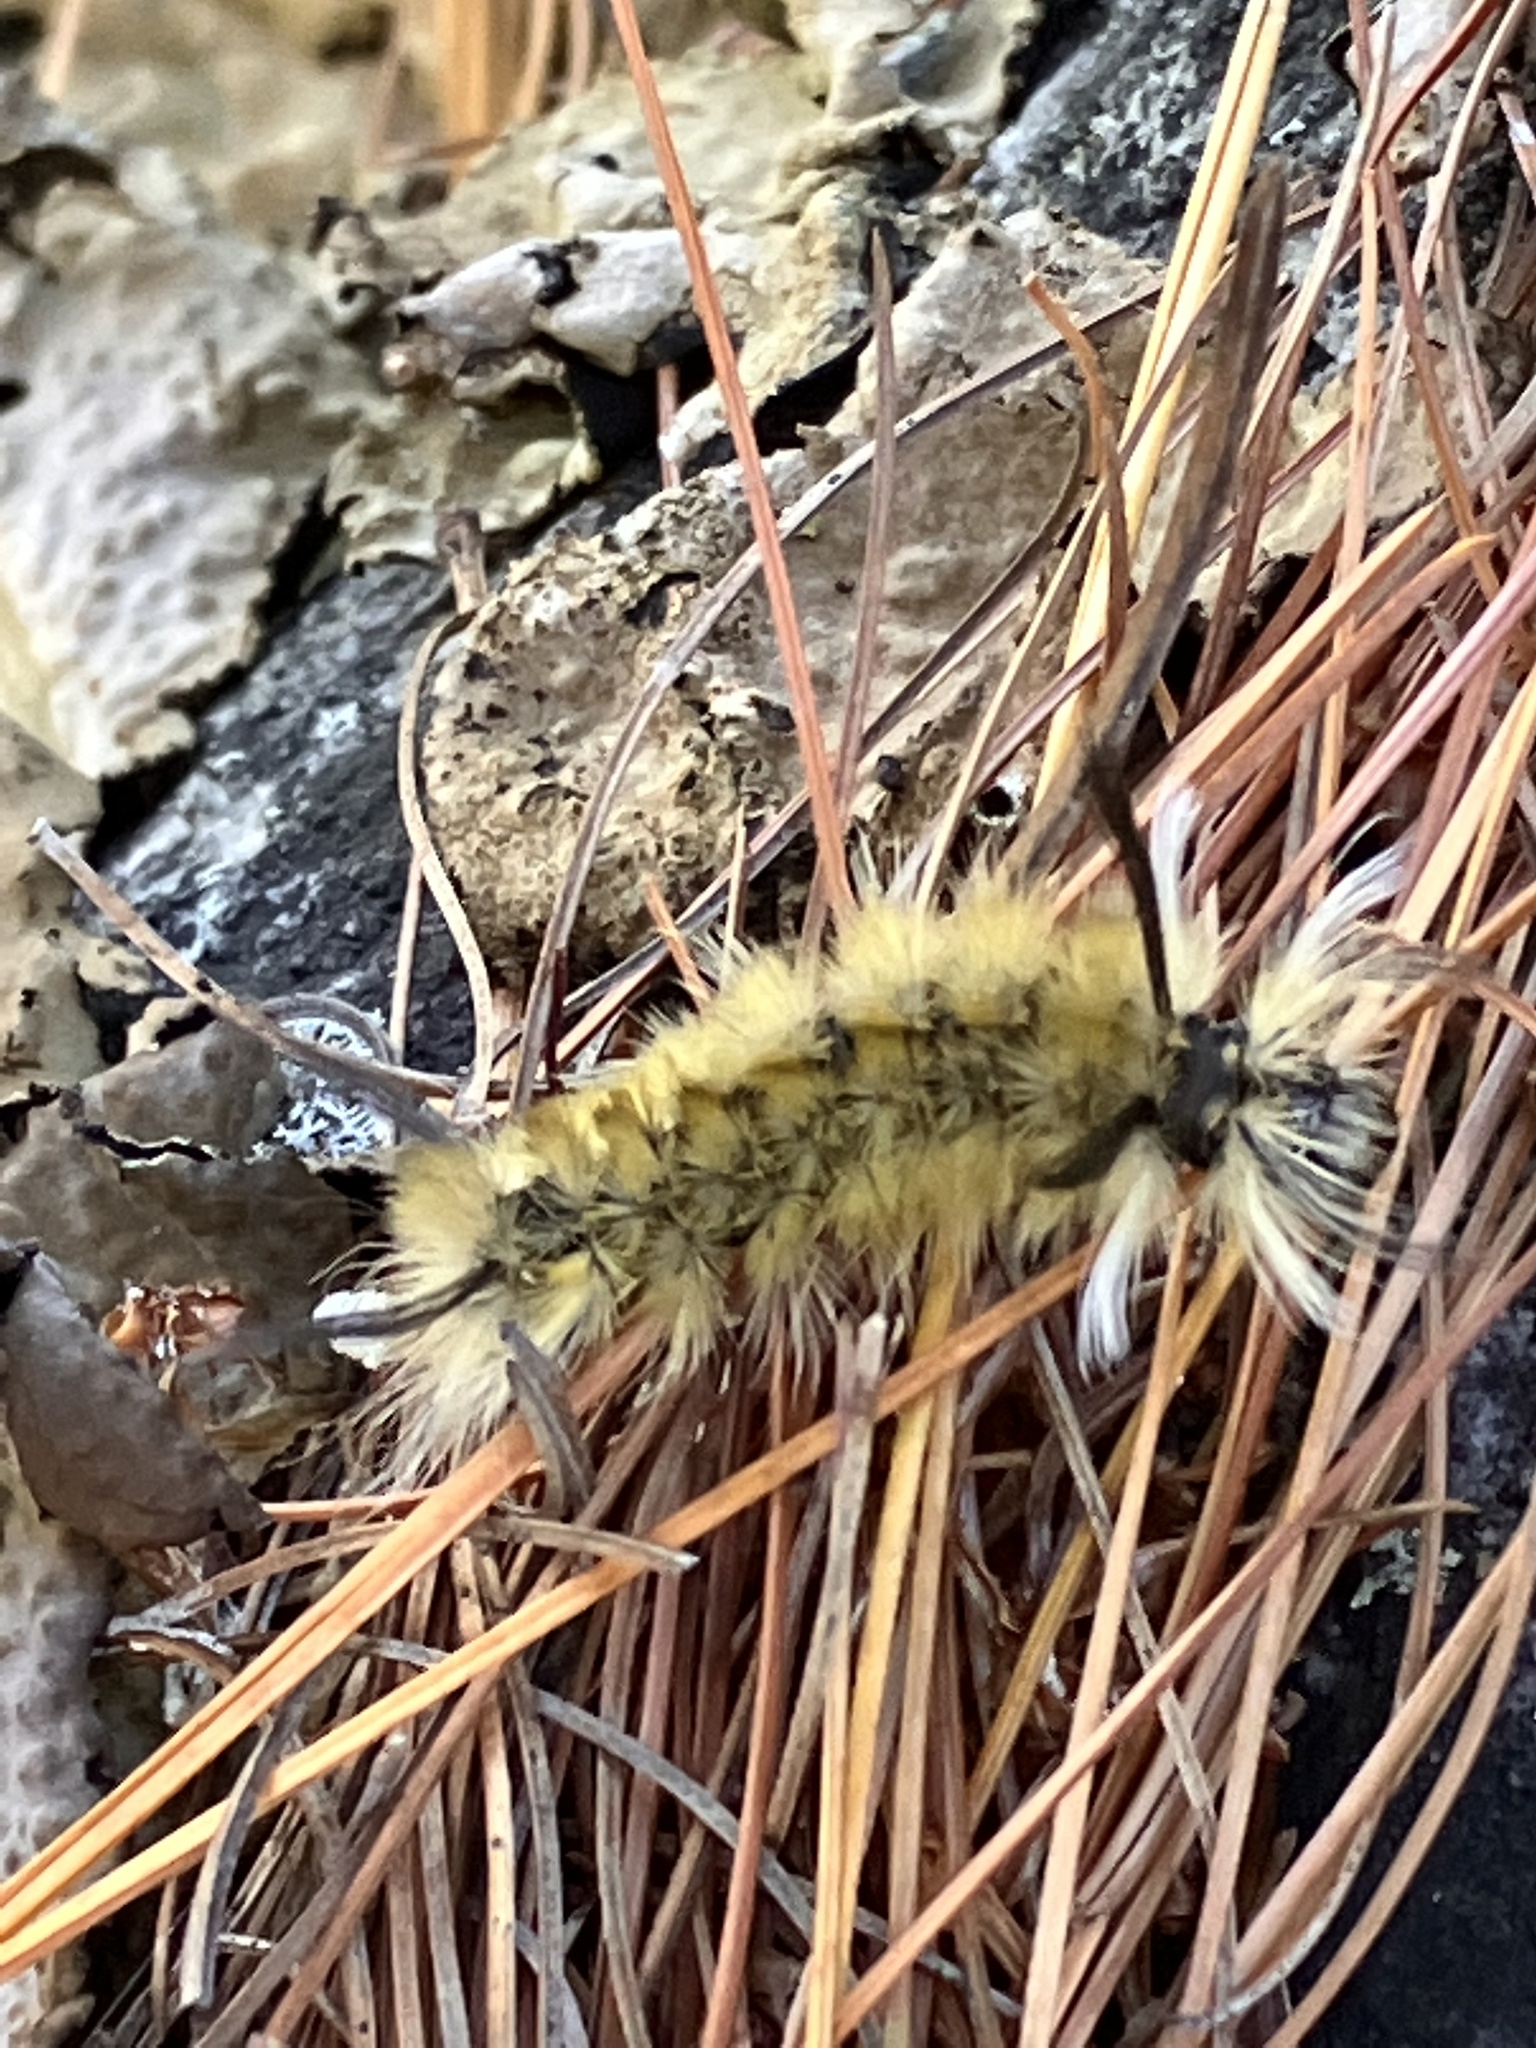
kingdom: Animalia
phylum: Arthropoda
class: Insecta
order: Lepidoptera
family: Erebidae
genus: Halysidota
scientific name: Halysidota tessellaris
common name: Banded tussock moth
